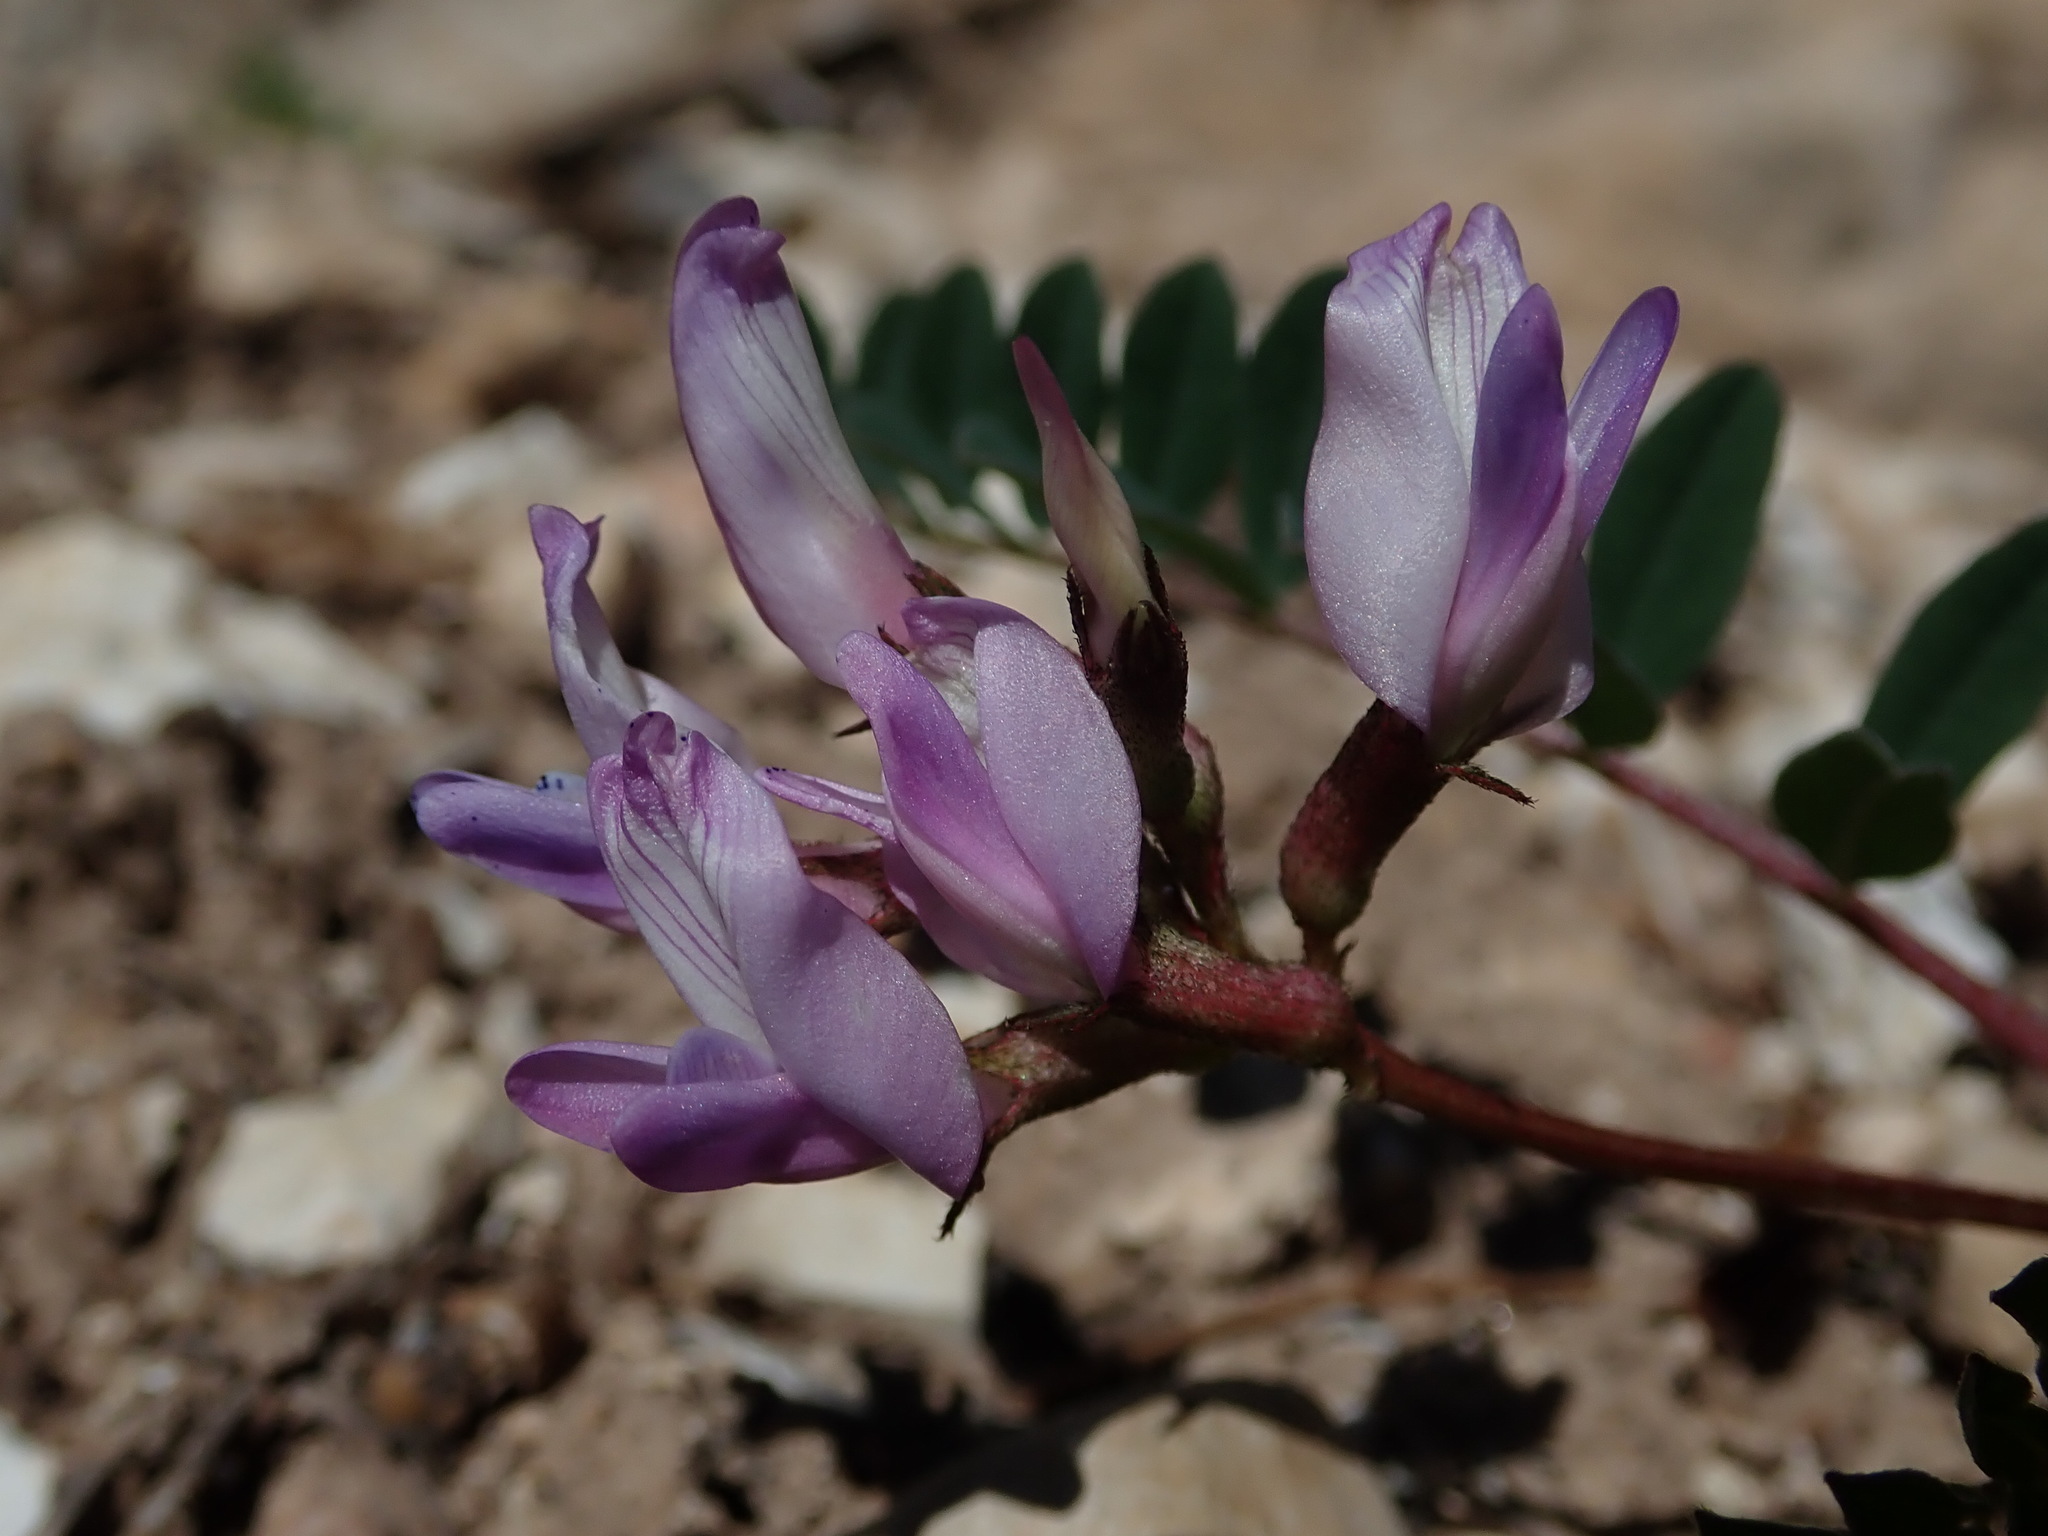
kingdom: Plantae
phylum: Tracheophyta
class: Magnoliopsida
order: Fabales
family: Fabaceae
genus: Astragalus
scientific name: Astragalus lentiginosus
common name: Freckled milkvetch
